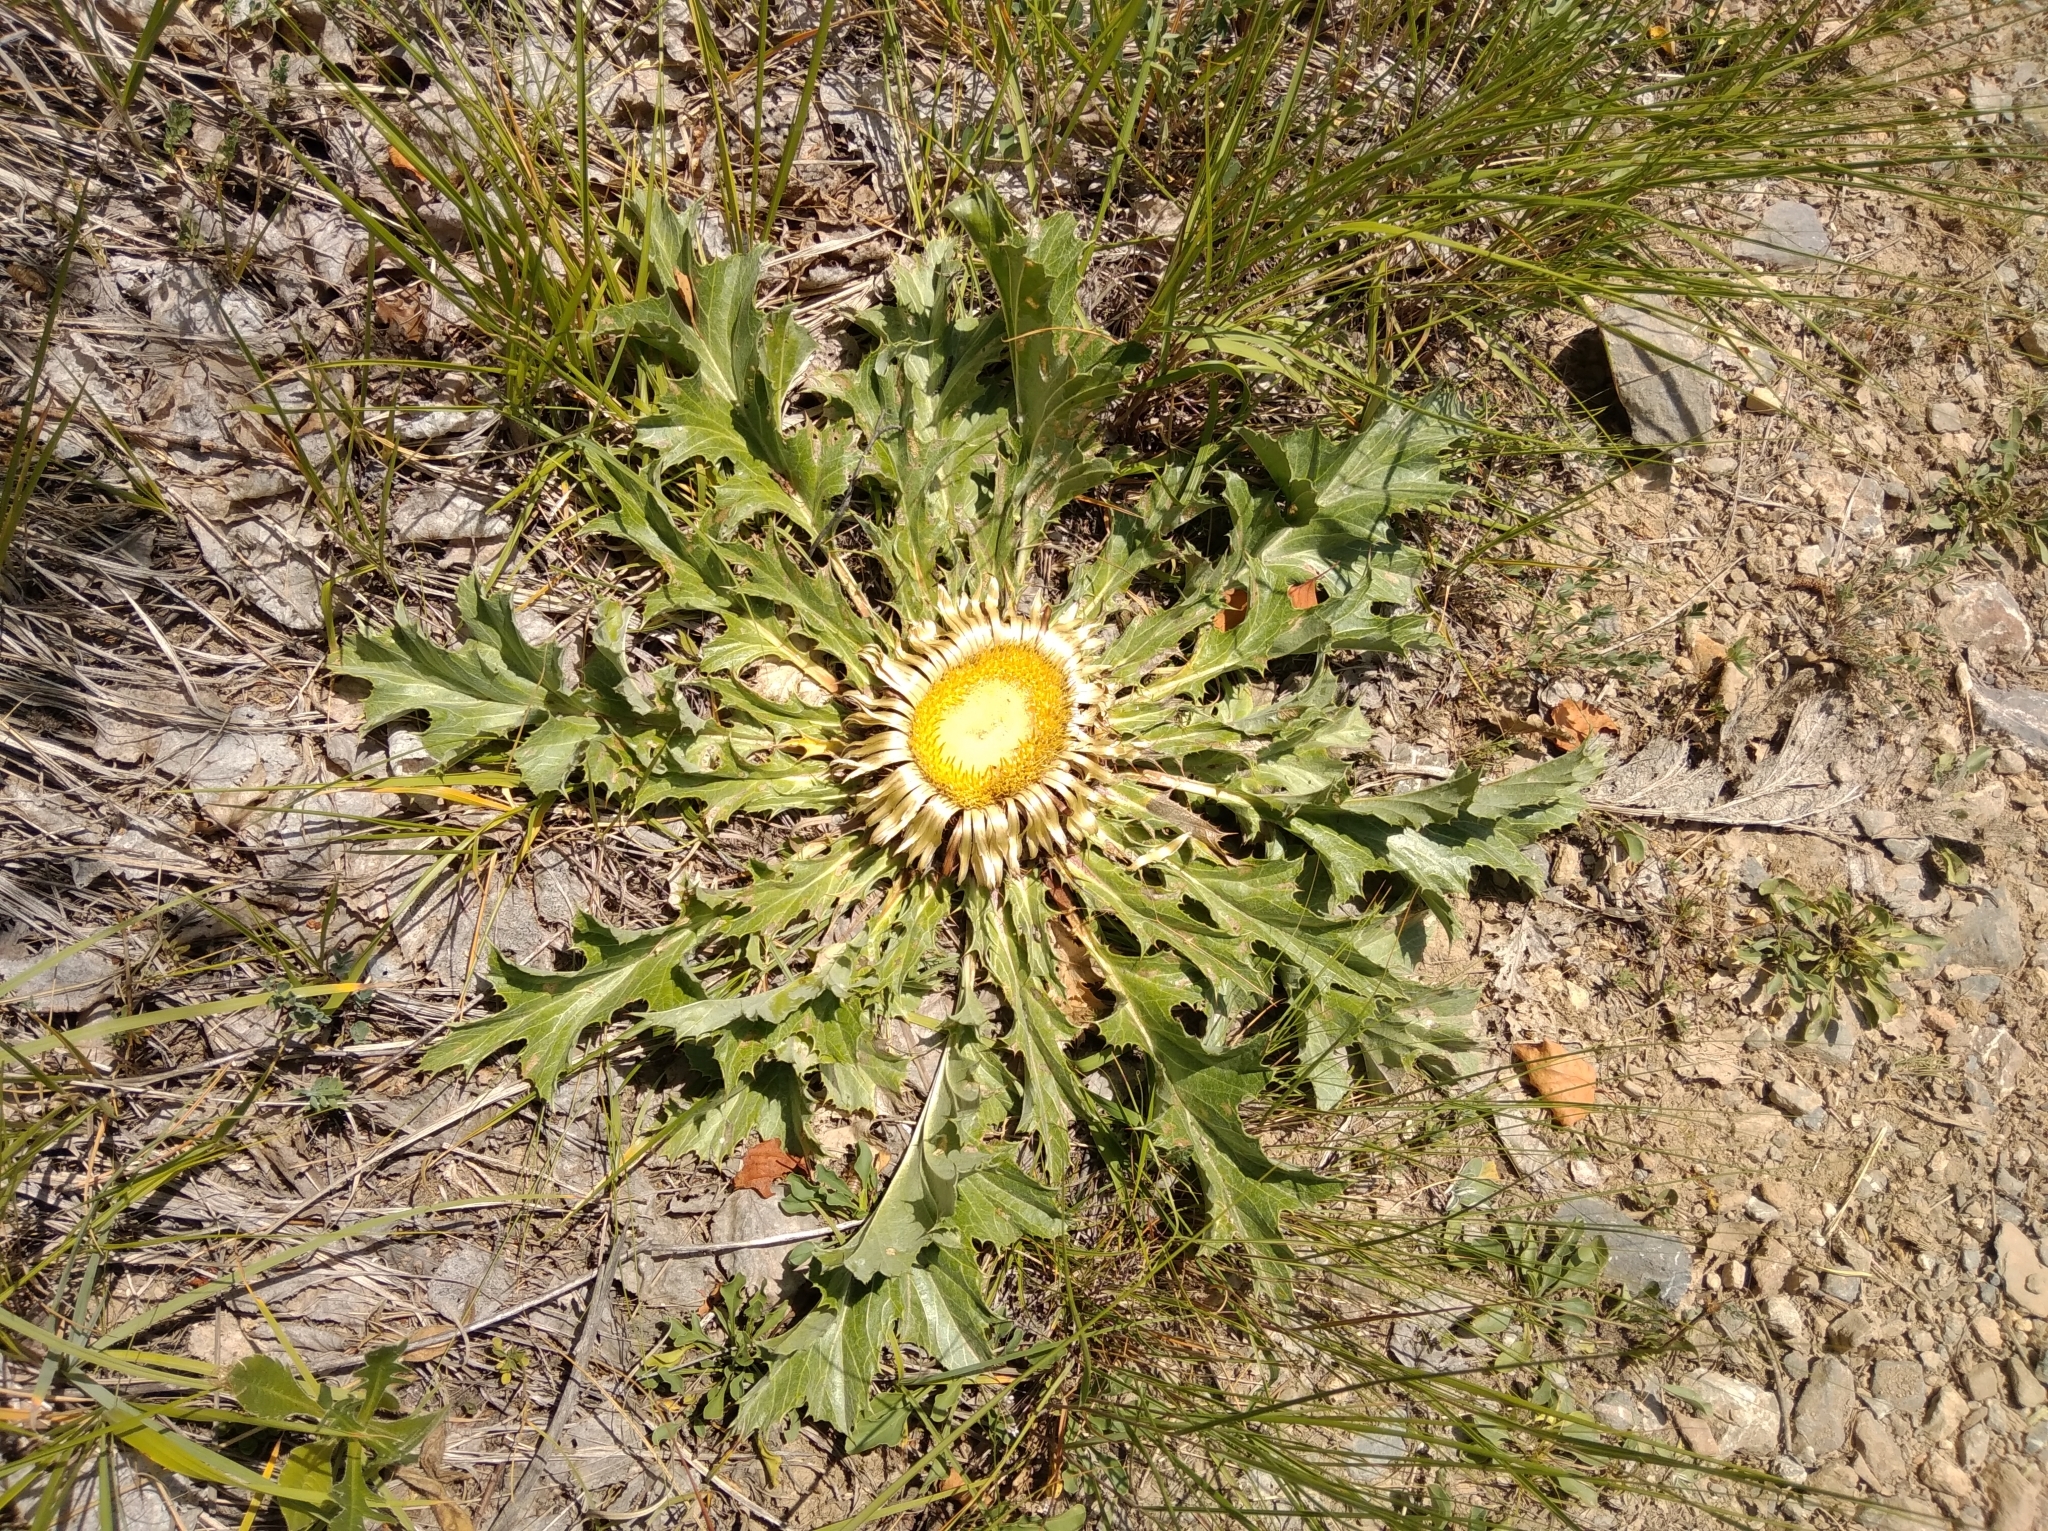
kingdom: Plantae
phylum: Tracheophyta
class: Magnoliopsida
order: Asterales
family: Asteraceae
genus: Carlina
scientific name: Carlina acaulis
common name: Stemless carline thistle
